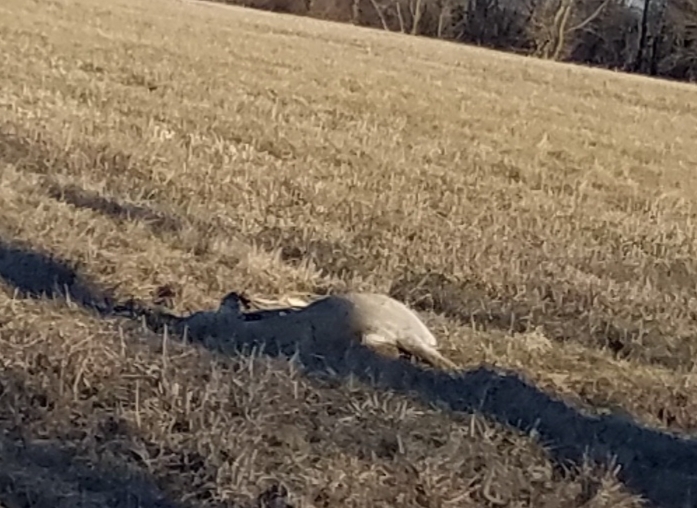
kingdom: Animalia
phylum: Chordata
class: Mammalia
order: Artiodactyla
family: Cervidae
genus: Odocoileus
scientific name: Odocoileus virginianus
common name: White-tailed deer
